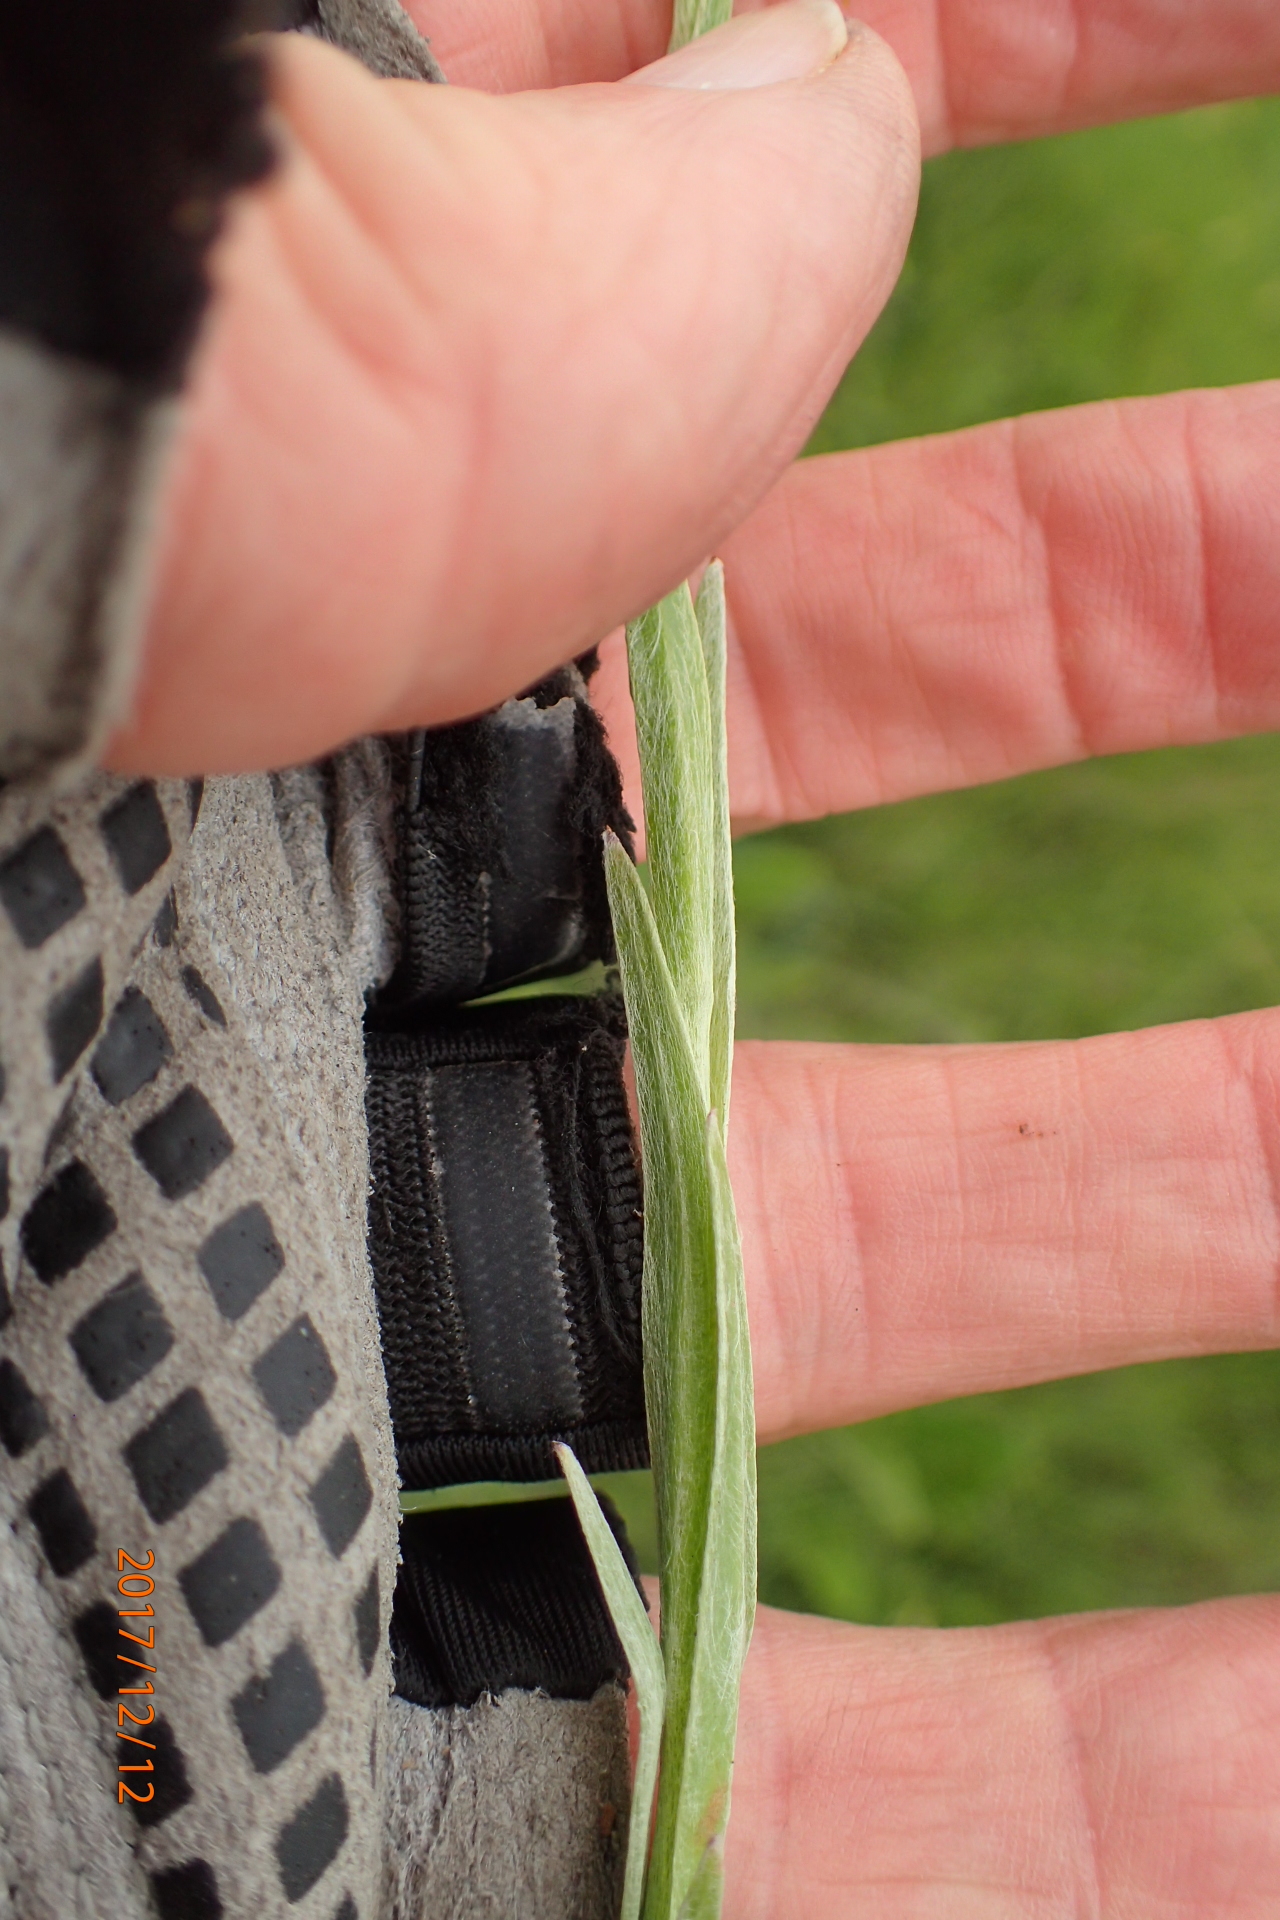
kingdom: Plantae
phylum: Tracheophyta
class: Magnoliopsida
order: Asterales
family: Asteraceae
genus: Helichrysum
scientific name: Helichrysum cephaloideum
